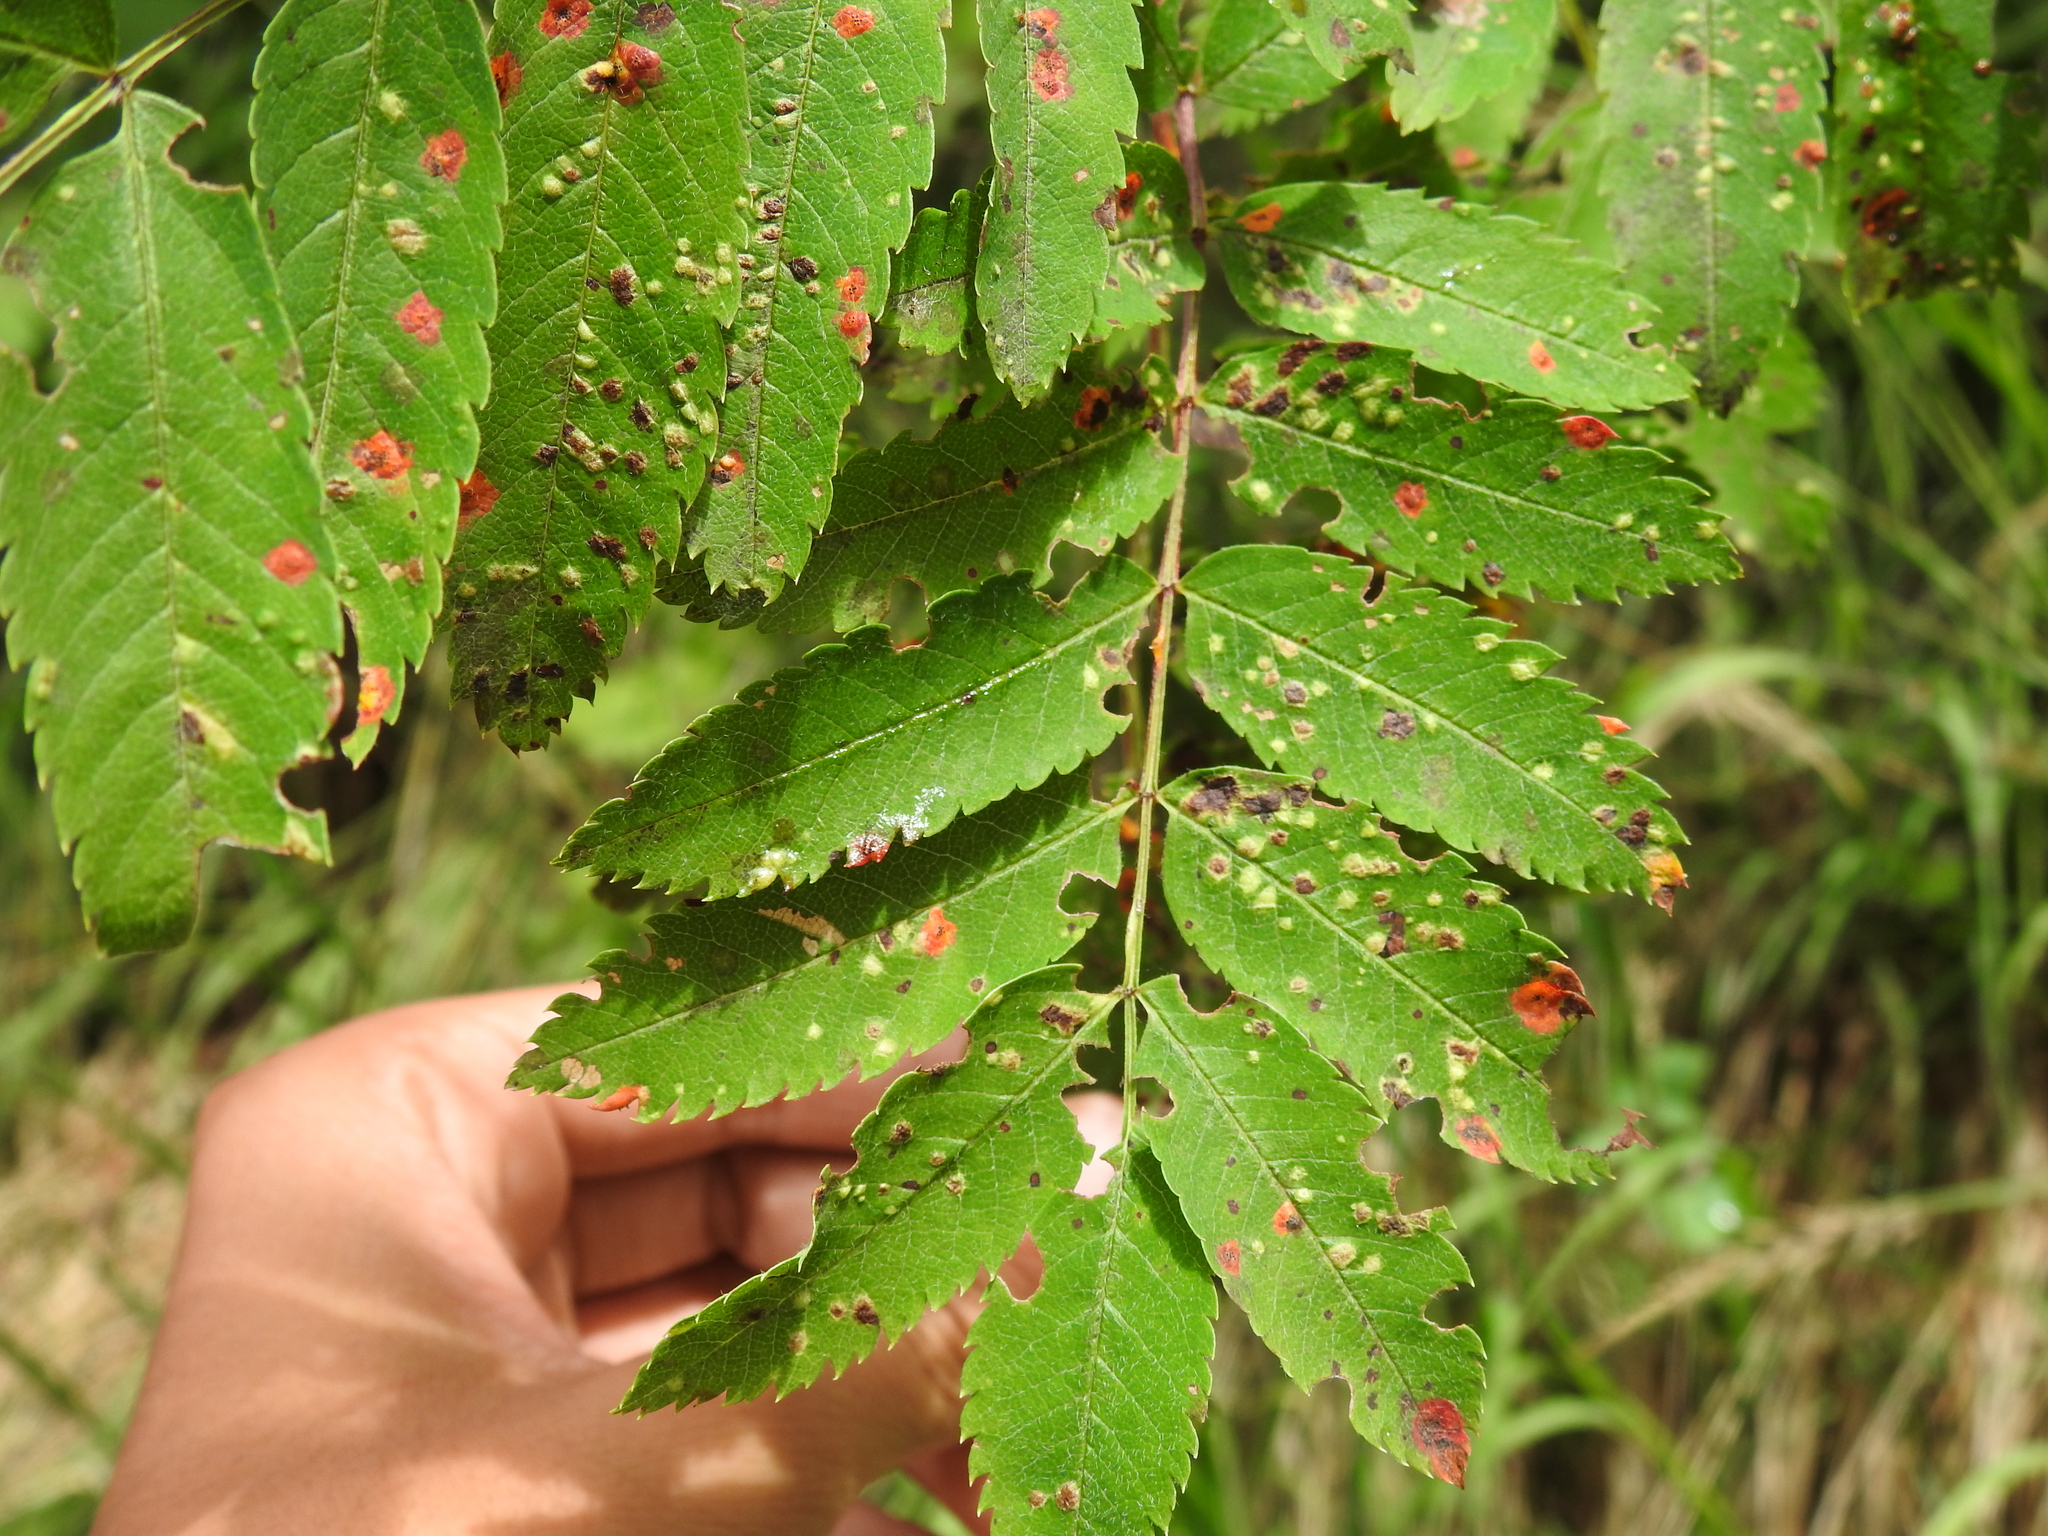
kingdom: Fungi
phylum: Basidiomycota
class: Pucciniomycetes
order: Pucciniales
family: Gymnosporangiaceae
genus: Gymnosporangium
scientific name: Gymnosporangium cornutum
